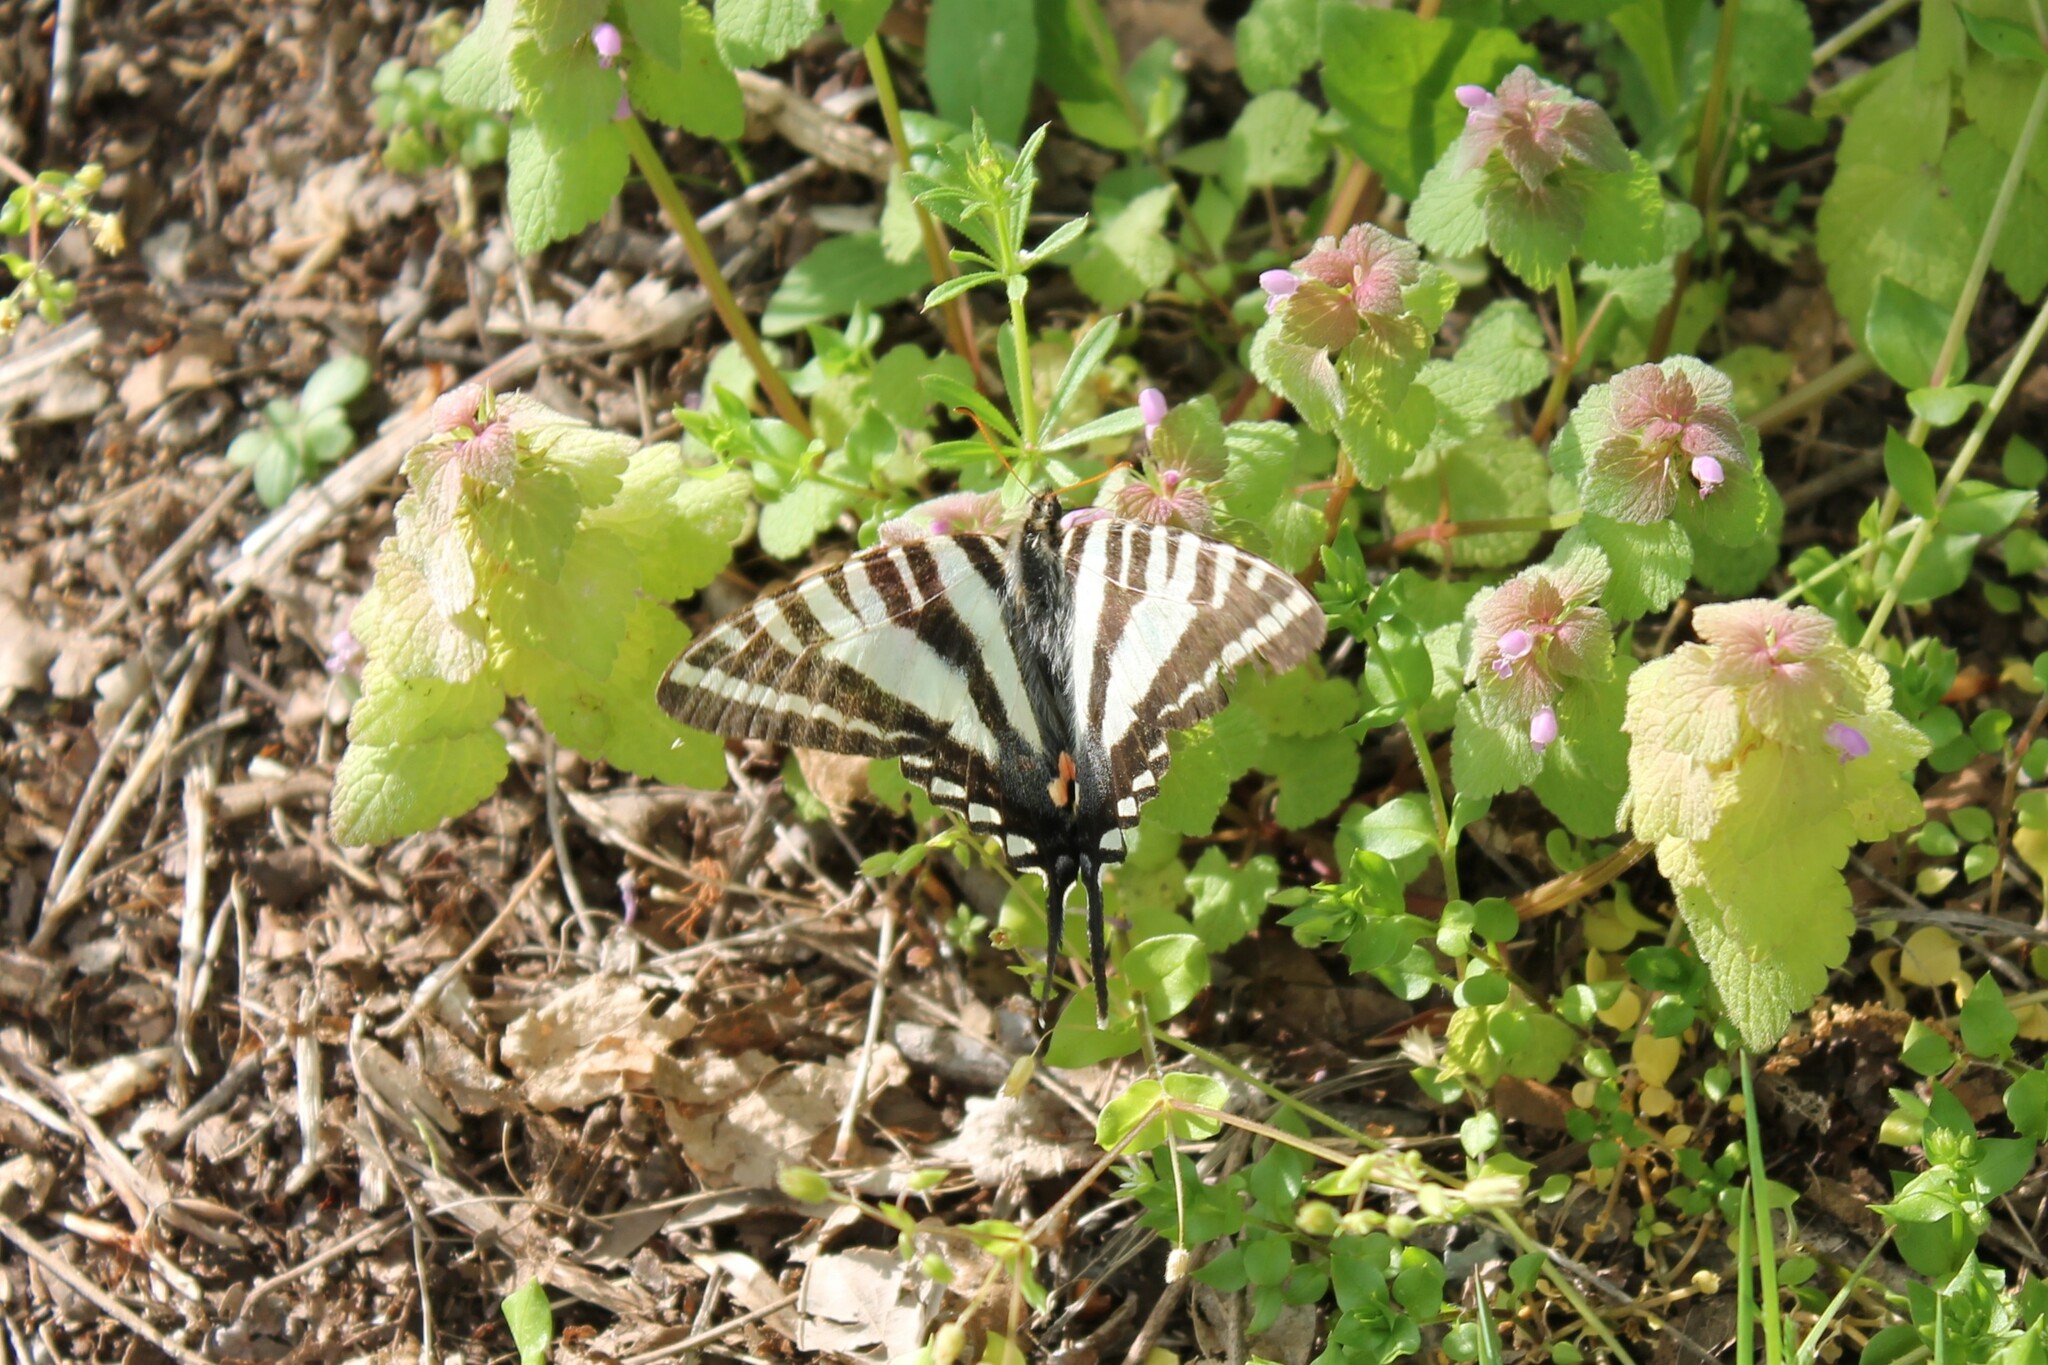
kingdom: Animalia
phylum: Arthropoda
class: Insecta
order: Lepidoptera
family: Papilionidae
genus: Protographium
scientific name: Protographium marcellus
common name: Zebra swallowtail
